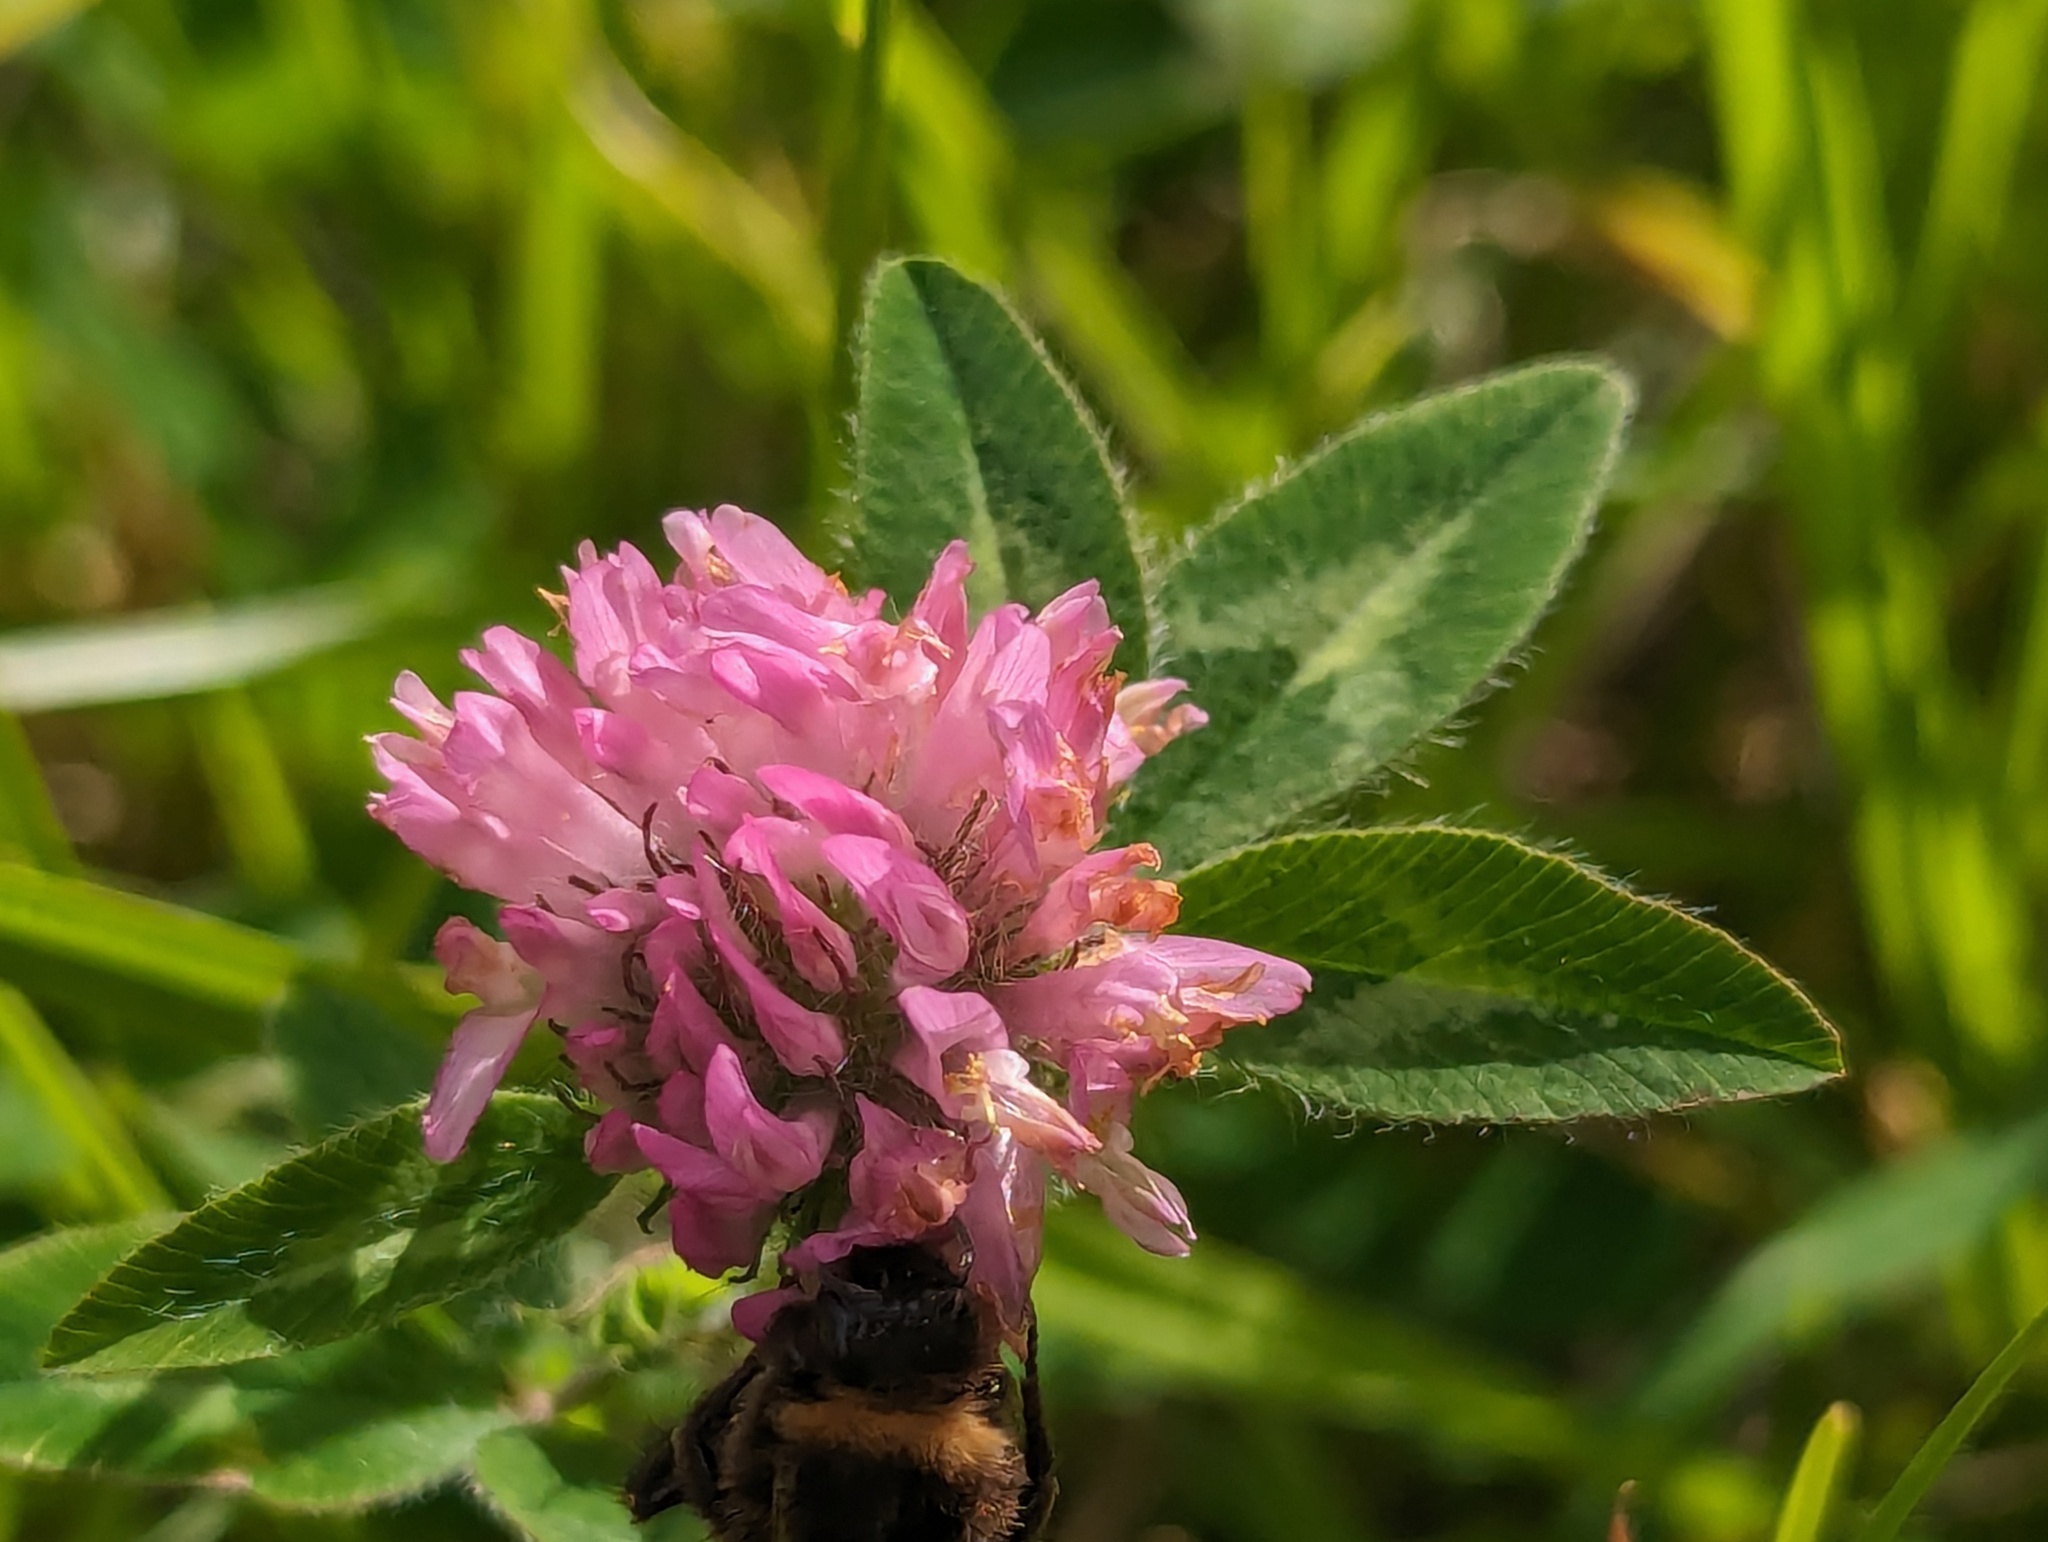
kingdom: Plantae
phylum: Tracheophyta
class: Magnoliopsida
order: Fabales
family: Fabaceae
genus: Trifolium
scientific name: Trifolium pratense
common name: Red clover
